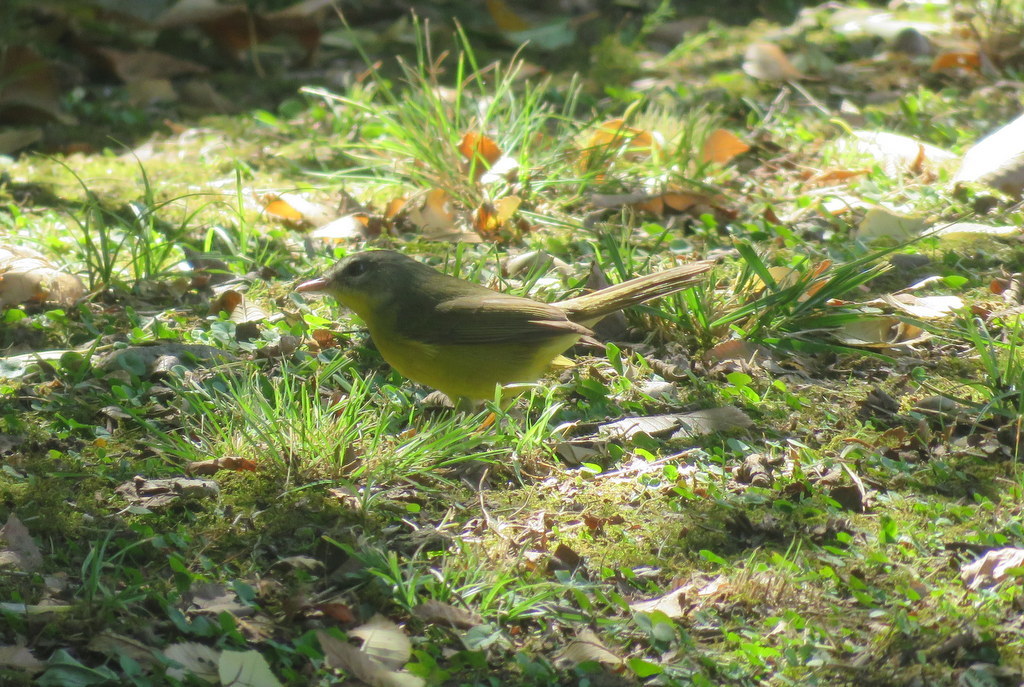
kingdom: Animalia
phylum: Chordata
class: Aves
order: Passeriformes
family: Parulidae
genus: Basileuterus
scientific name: Basileuterus culicivorus
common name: Golden-crowned warbler
